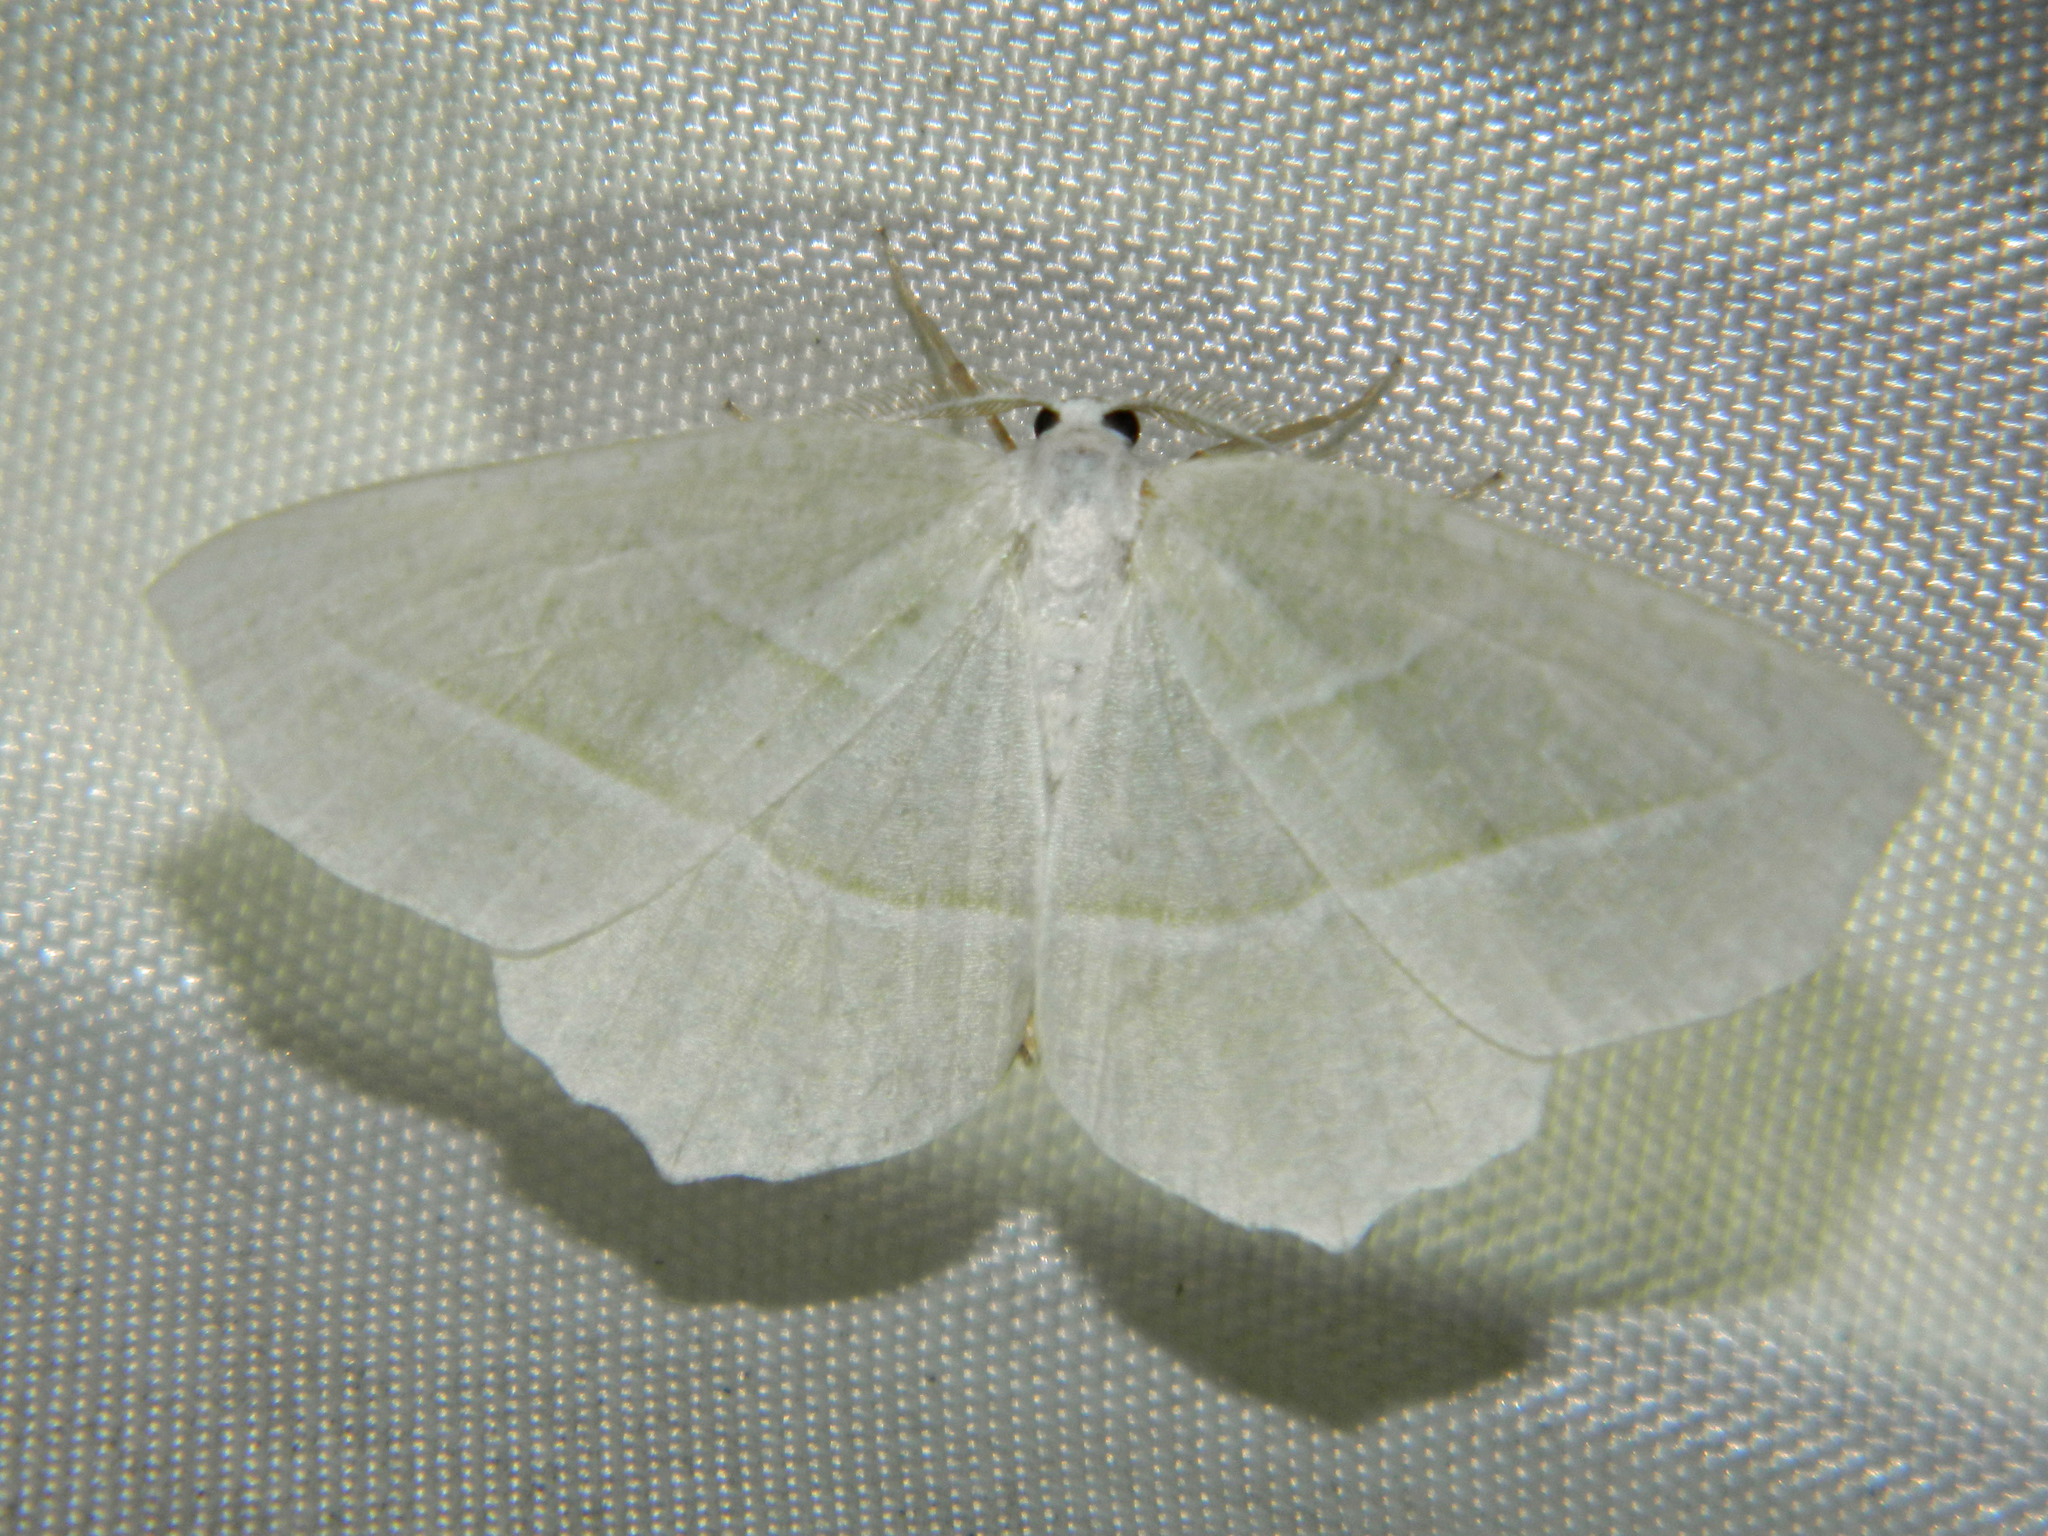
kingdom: Animalia
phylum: Arthropoda
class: Insecta
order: Lepidoptera
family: Geometridae
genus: Campaea
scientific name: Campaea perlata
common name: Fringed looper
